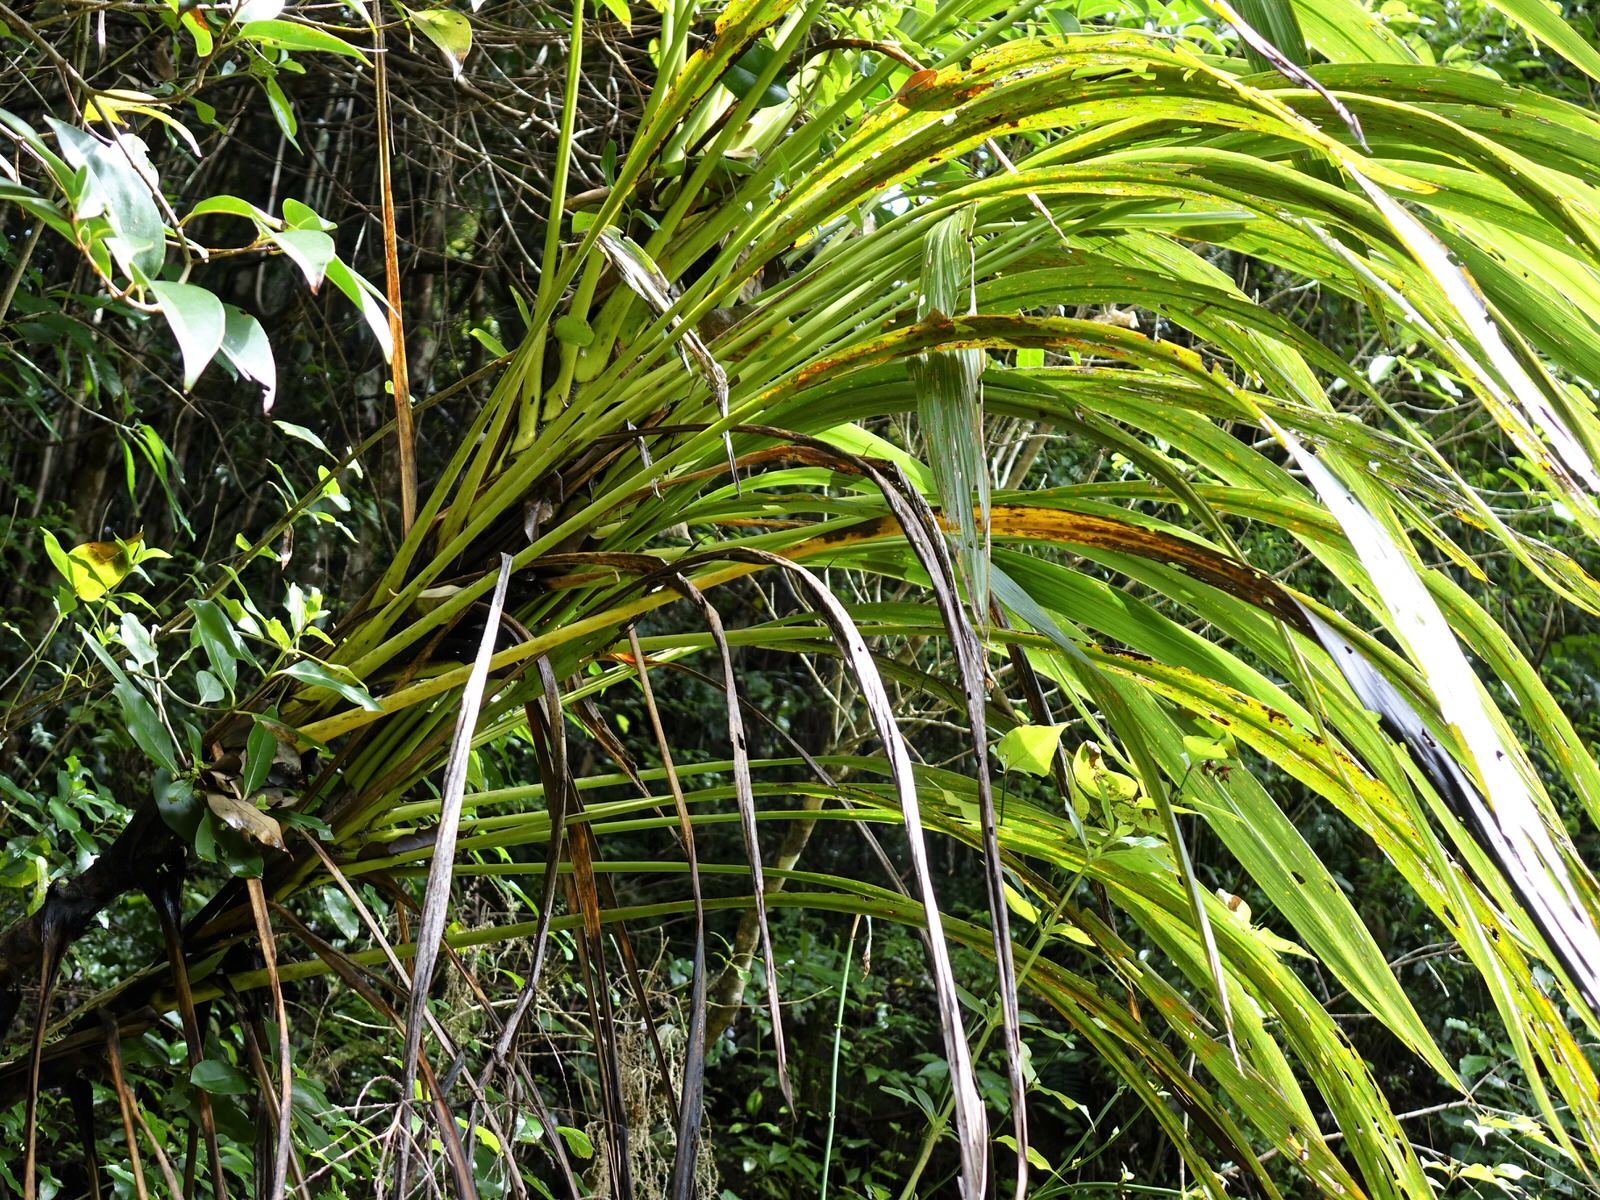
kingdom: Plantae
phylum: Tracheophyta
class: Liliopsida
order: Asparagales
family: Asparagaceae
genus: Cordyline
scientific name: Cordyline banksii
